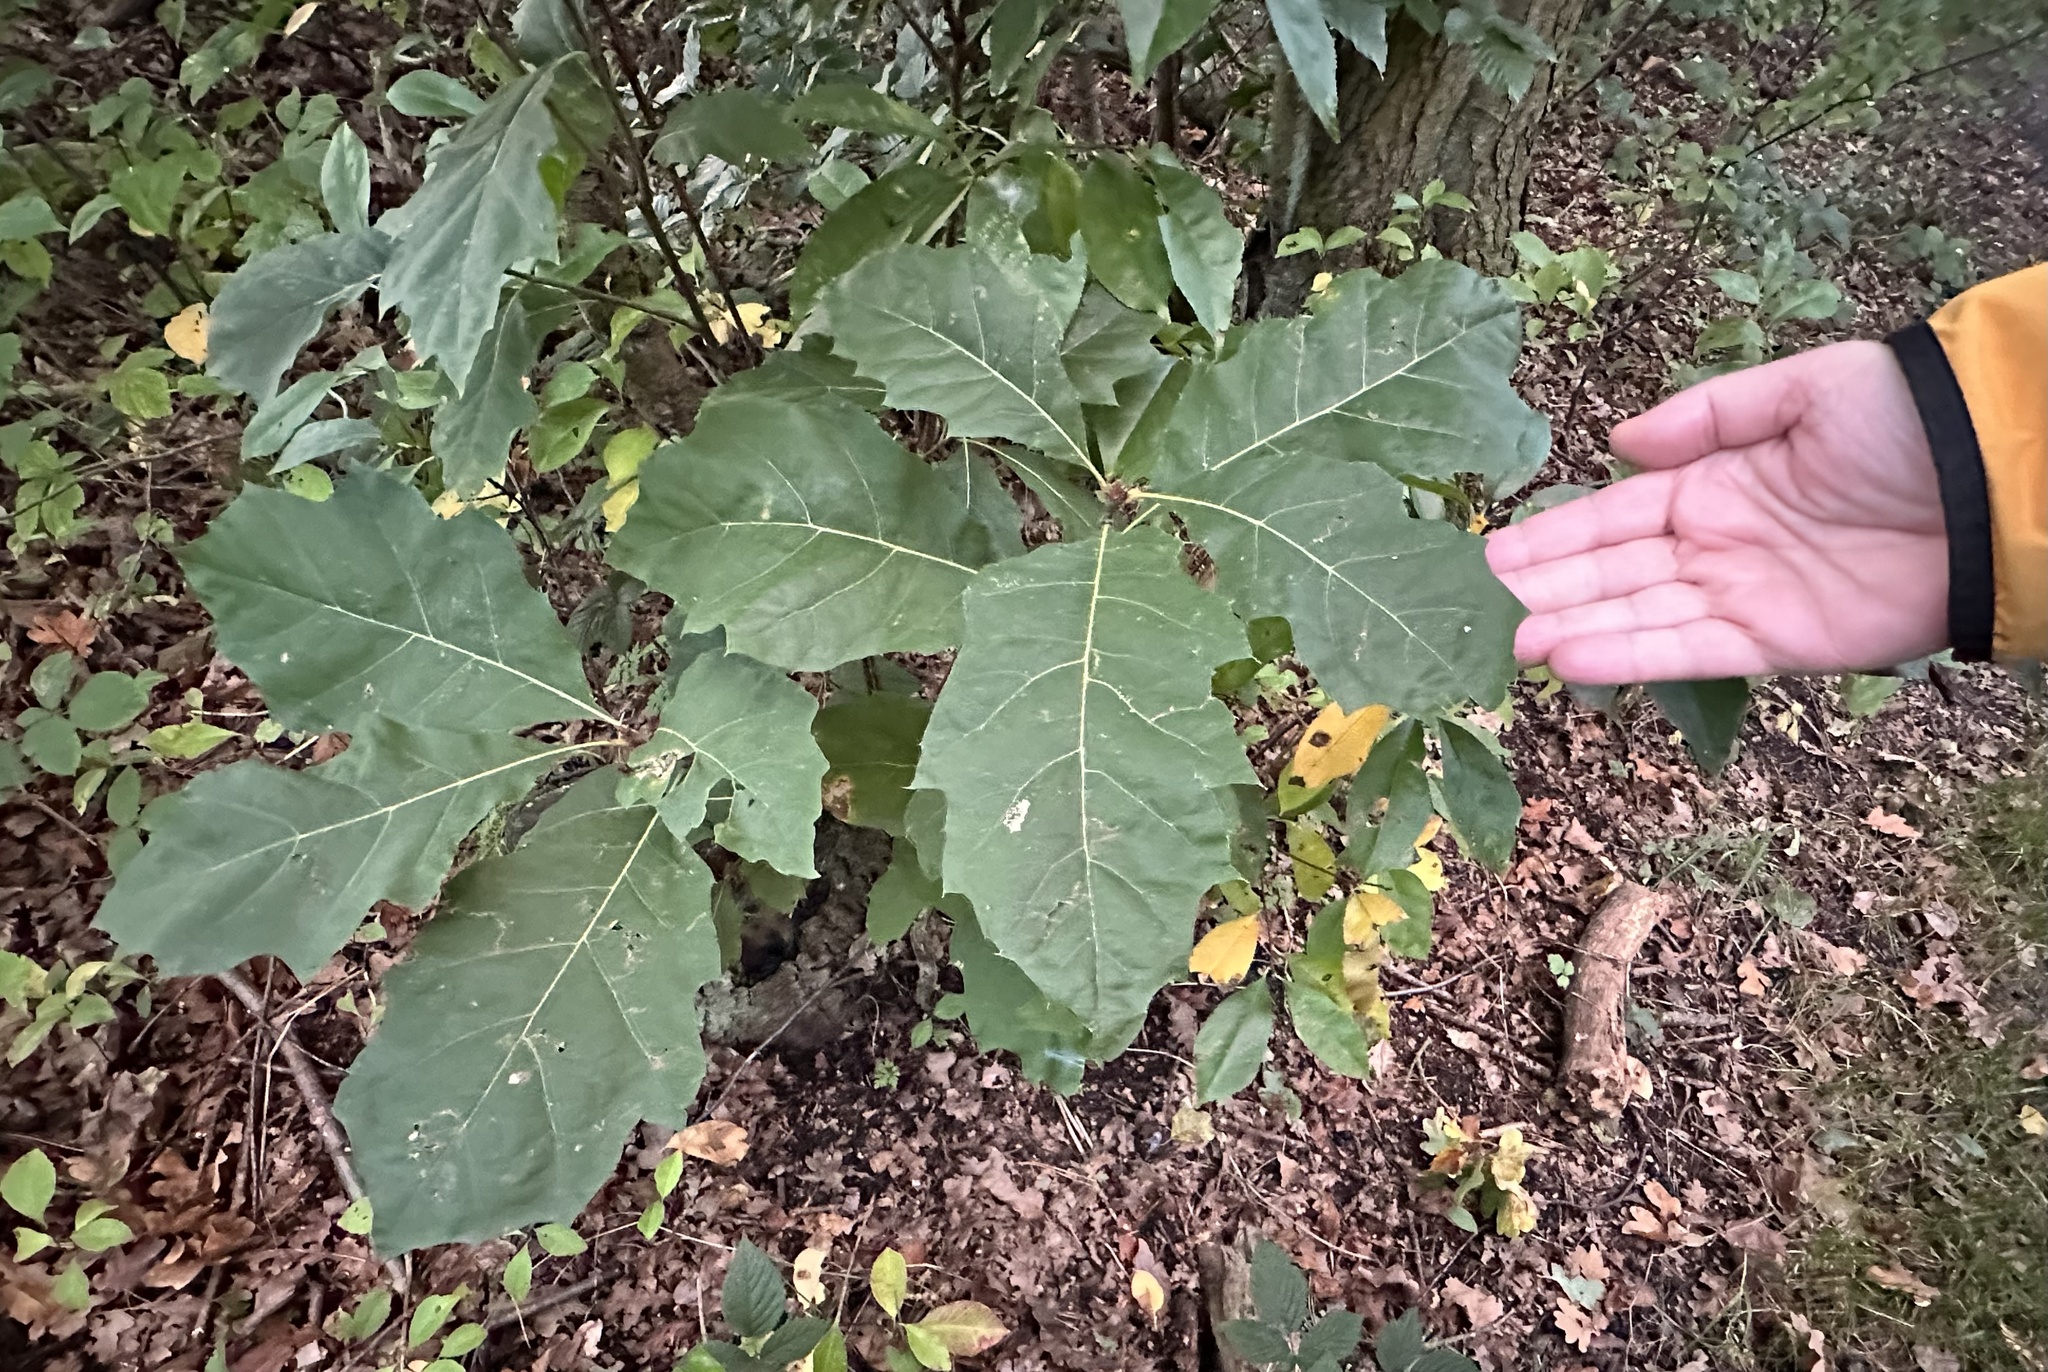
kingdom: Plantae
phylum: Tracheophyta
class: Magnoliopsida
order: Fagales
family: Fagaceae
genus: Quercus
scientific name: Quercus rubra
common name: Red oak
